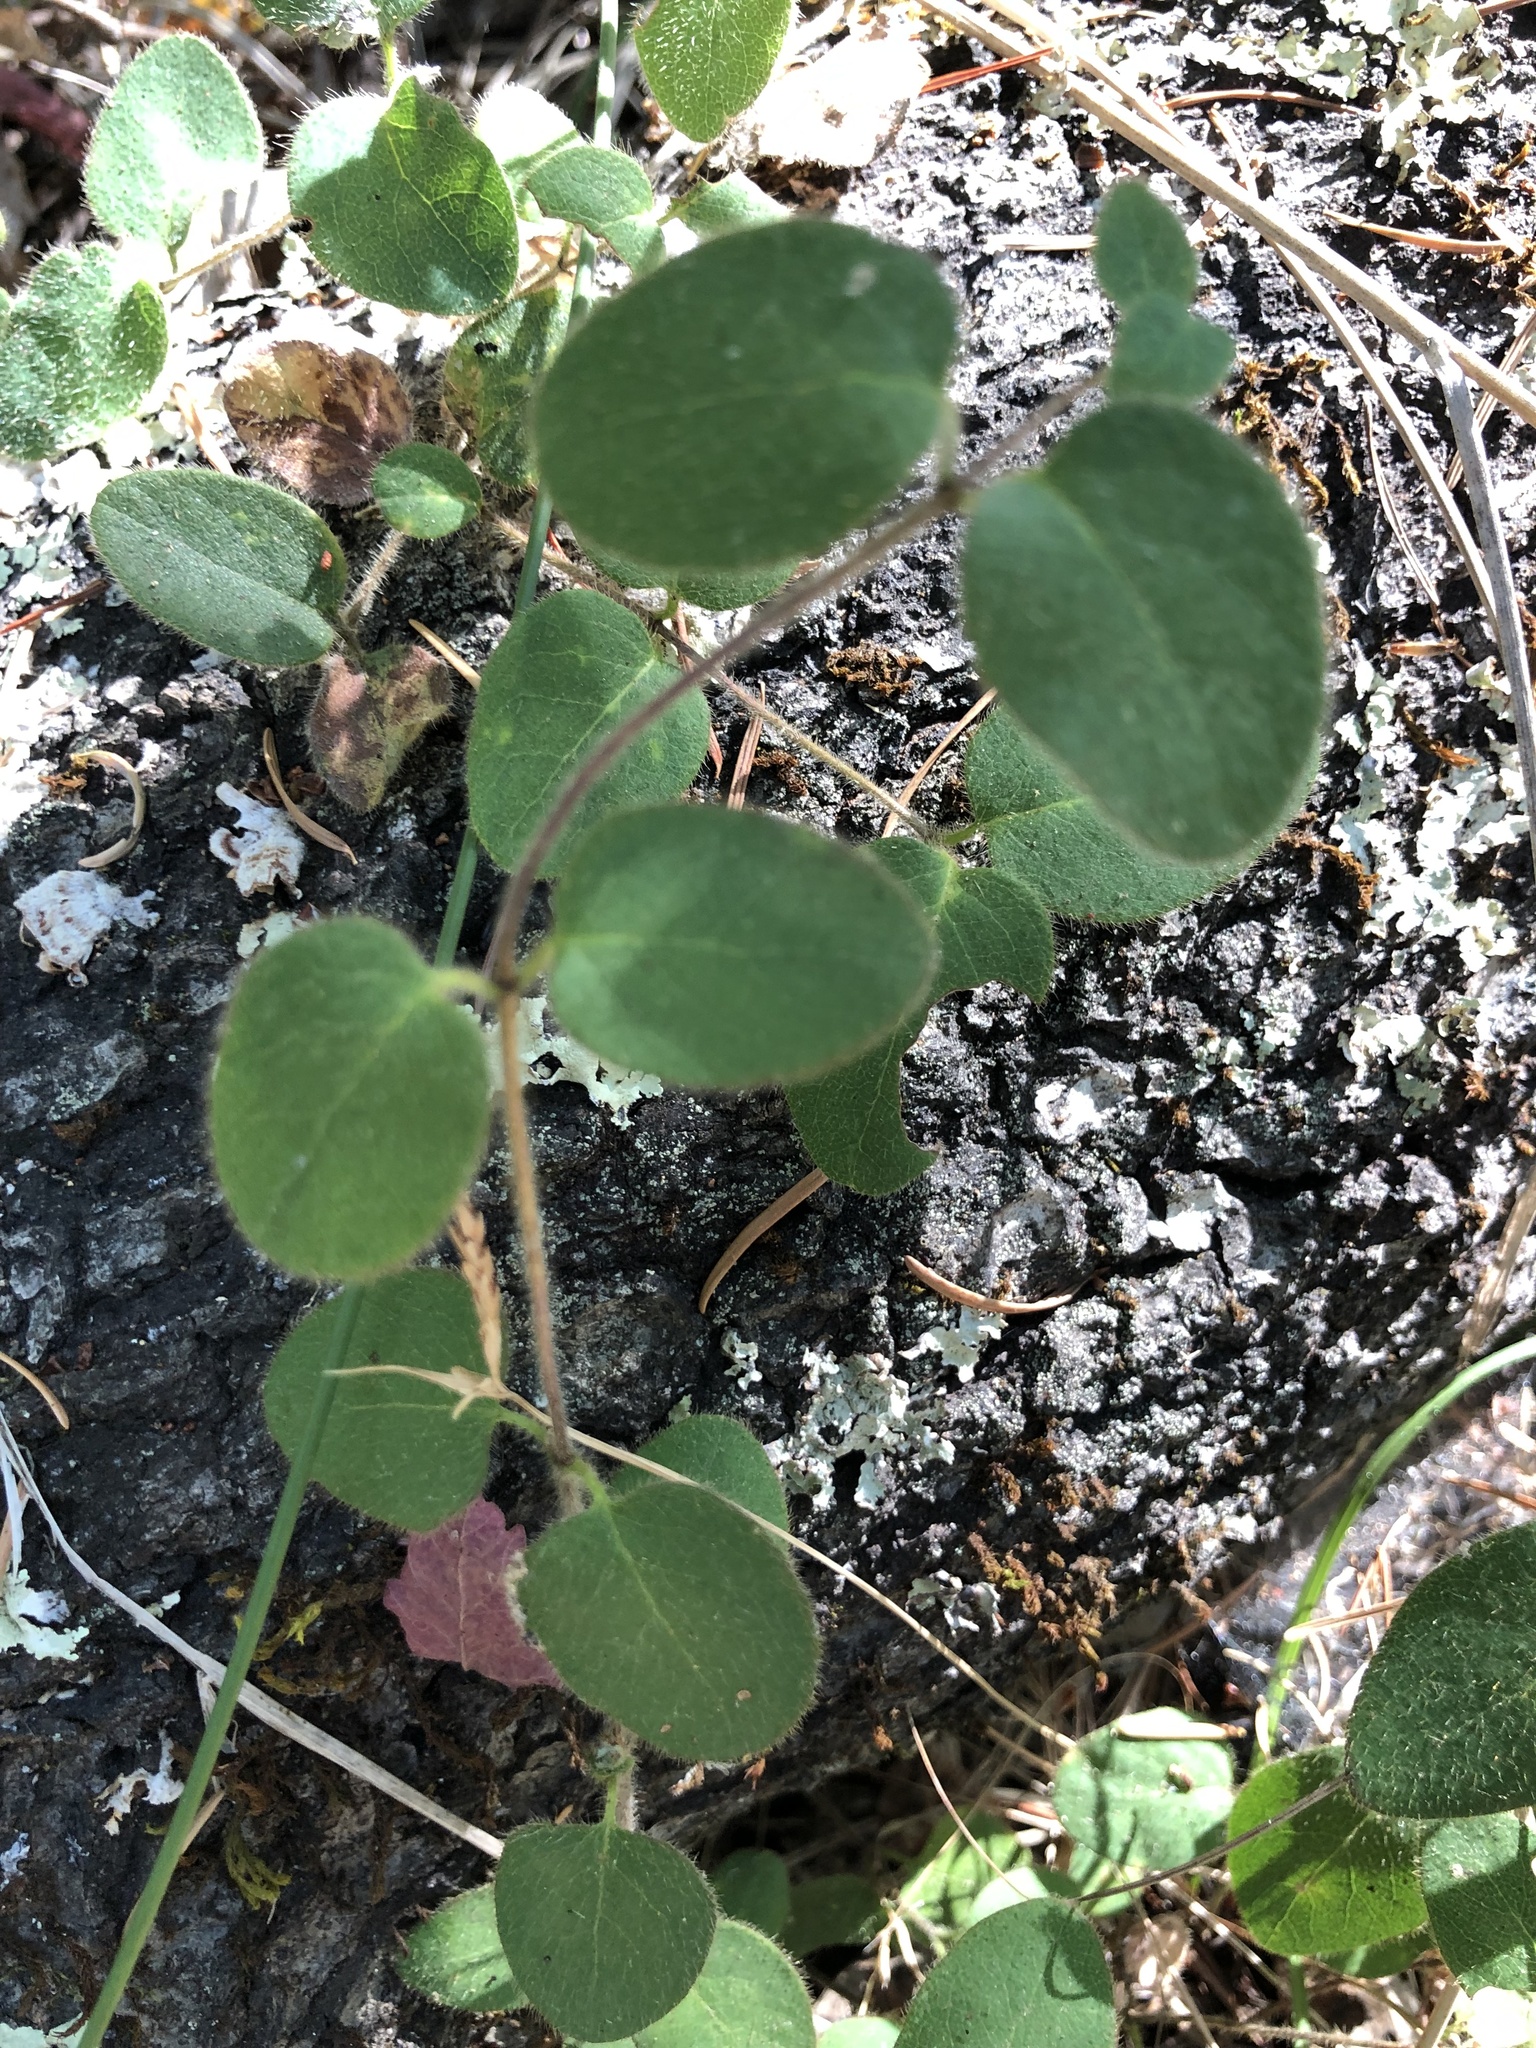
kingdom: Plantae
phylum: Tracheophyta
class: Magnoliopsida
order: Dipsacales
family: Caprifoliaceae
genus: Lonicera
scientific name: Lonicera hispidula
